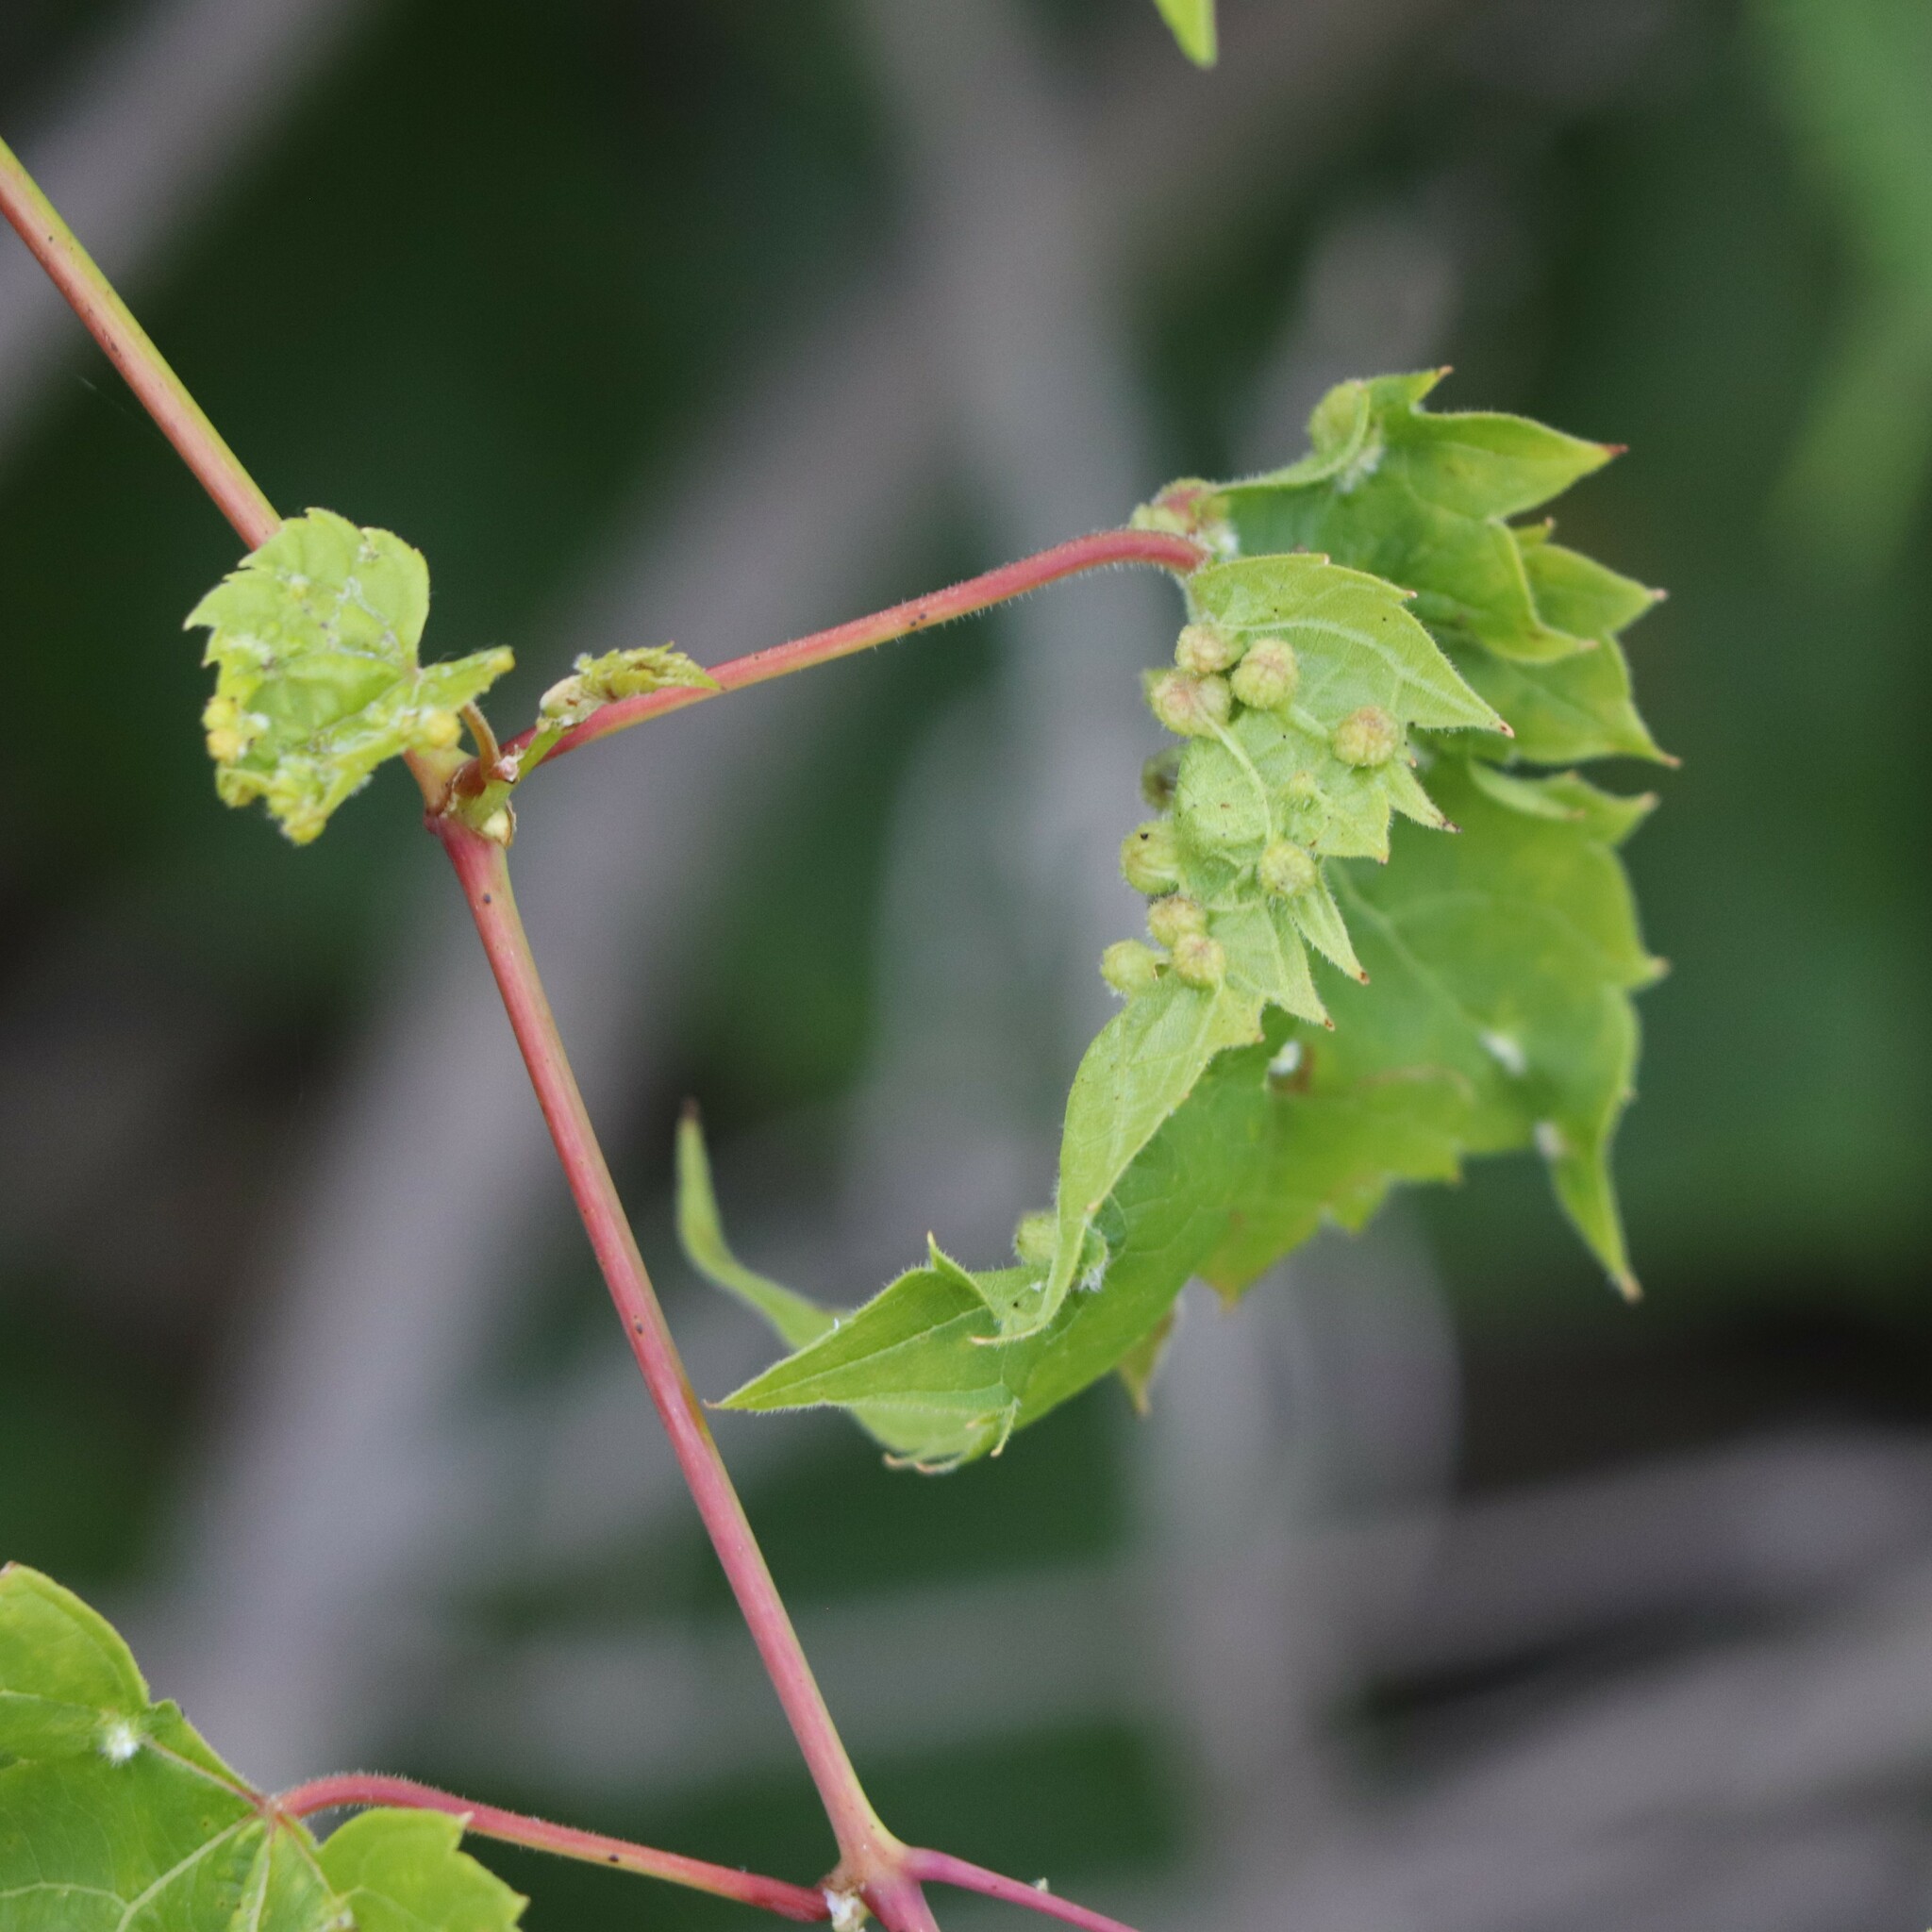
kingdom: Animalia
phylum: Arthropoda
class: Insecta
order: Hemiptera
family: Phylloxeridae
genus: Daktulosphaira
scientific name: Daktulosphaira vitifoliae
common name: Grape phylloxera
